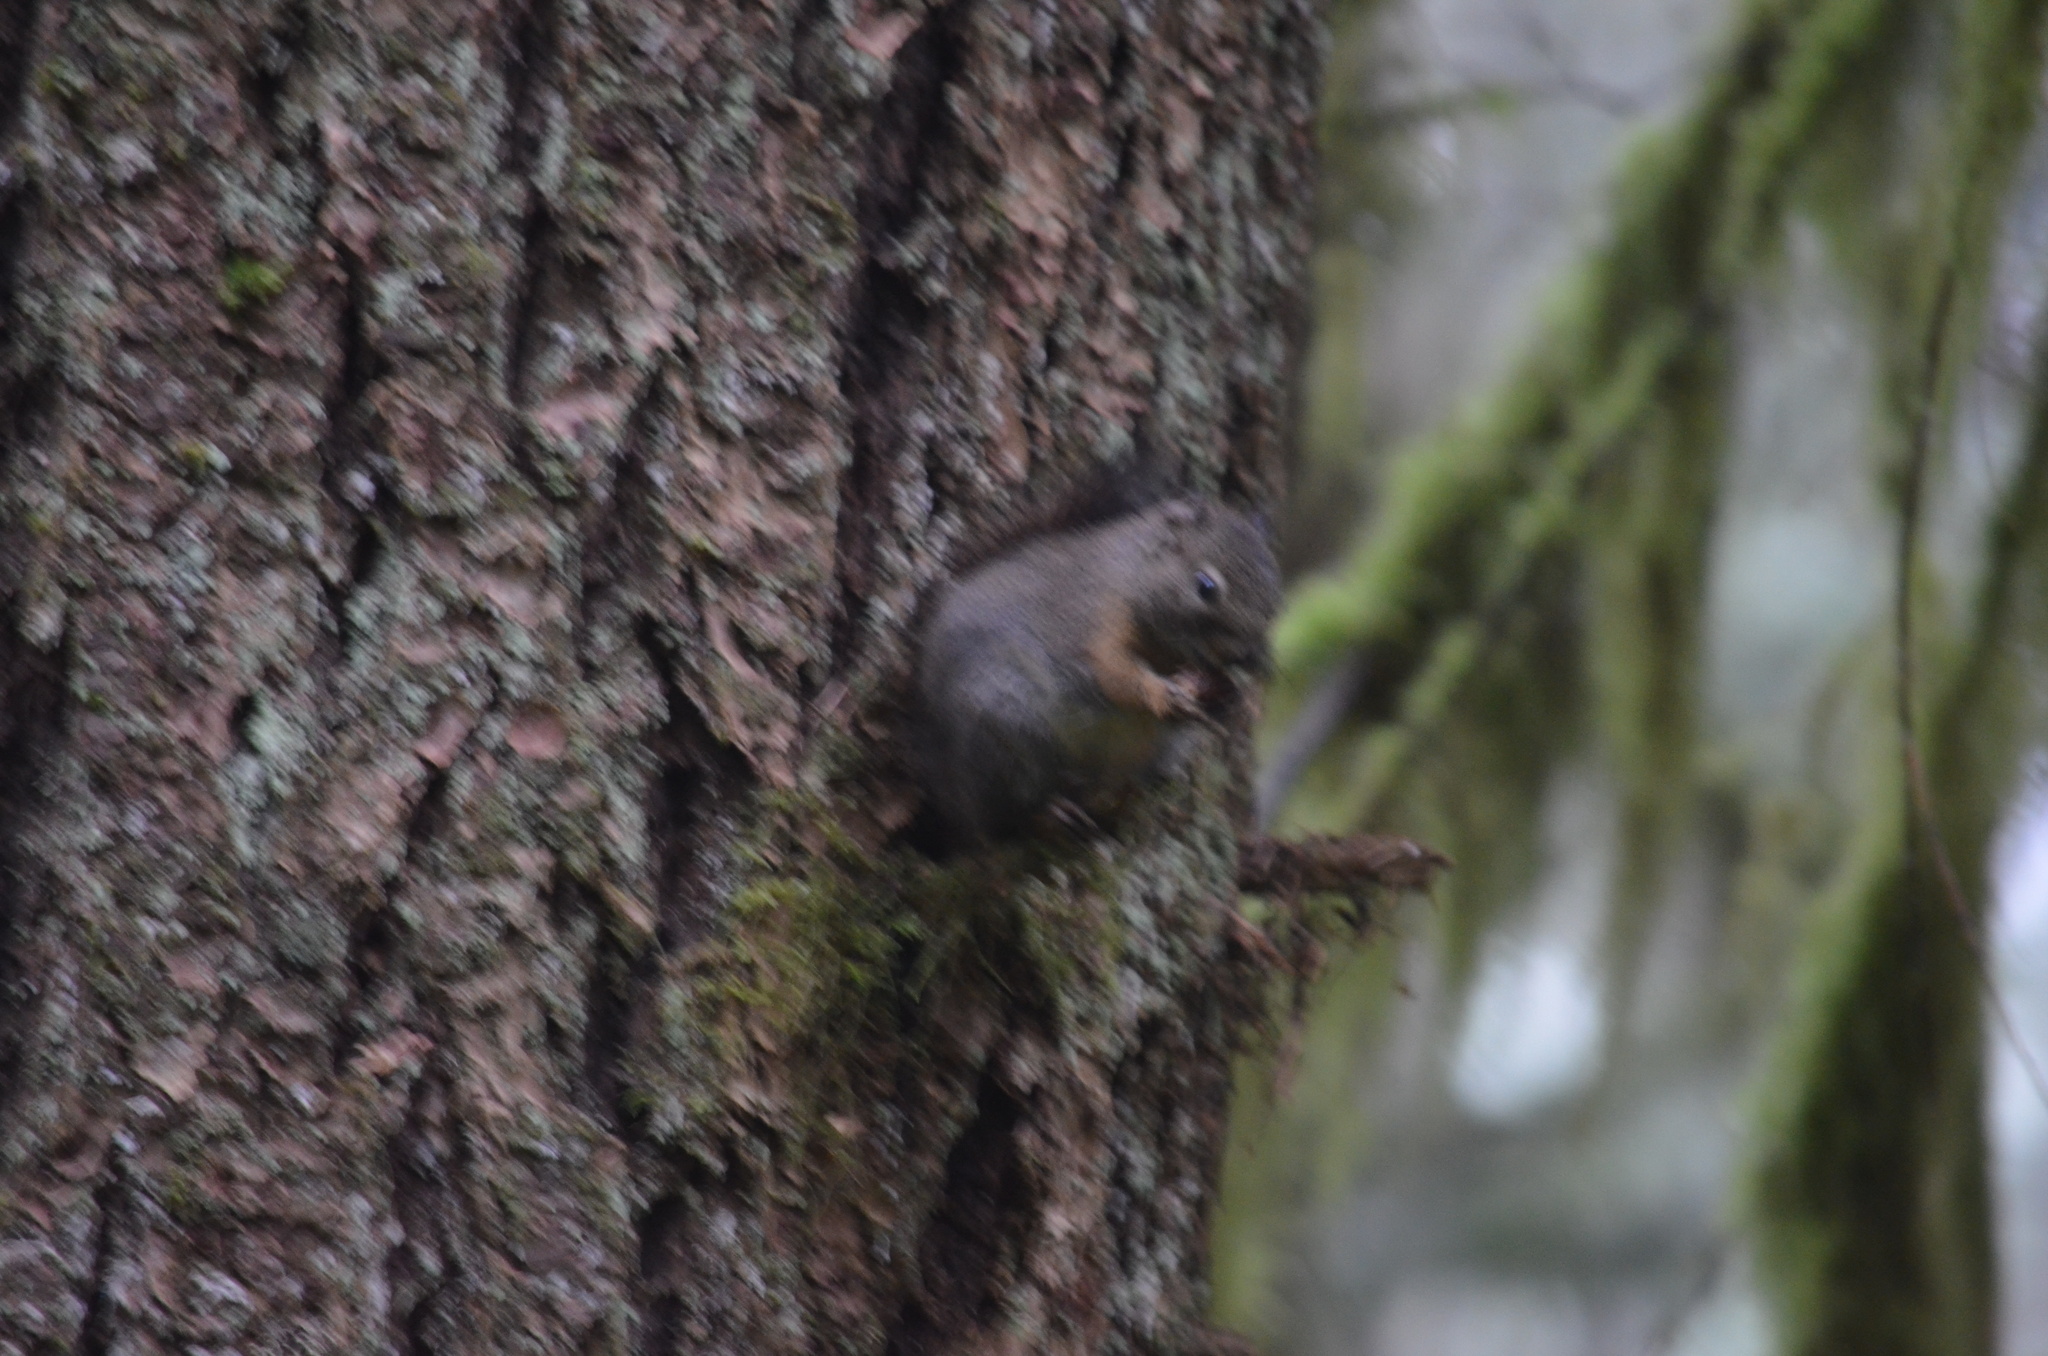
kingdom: Animalia
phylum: Chordata
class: Mammalia
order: Rodentia
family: Sciuridae
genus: Tamiasciurus
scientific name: Tamiasciurus hudsonicus
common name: Red squirrel
